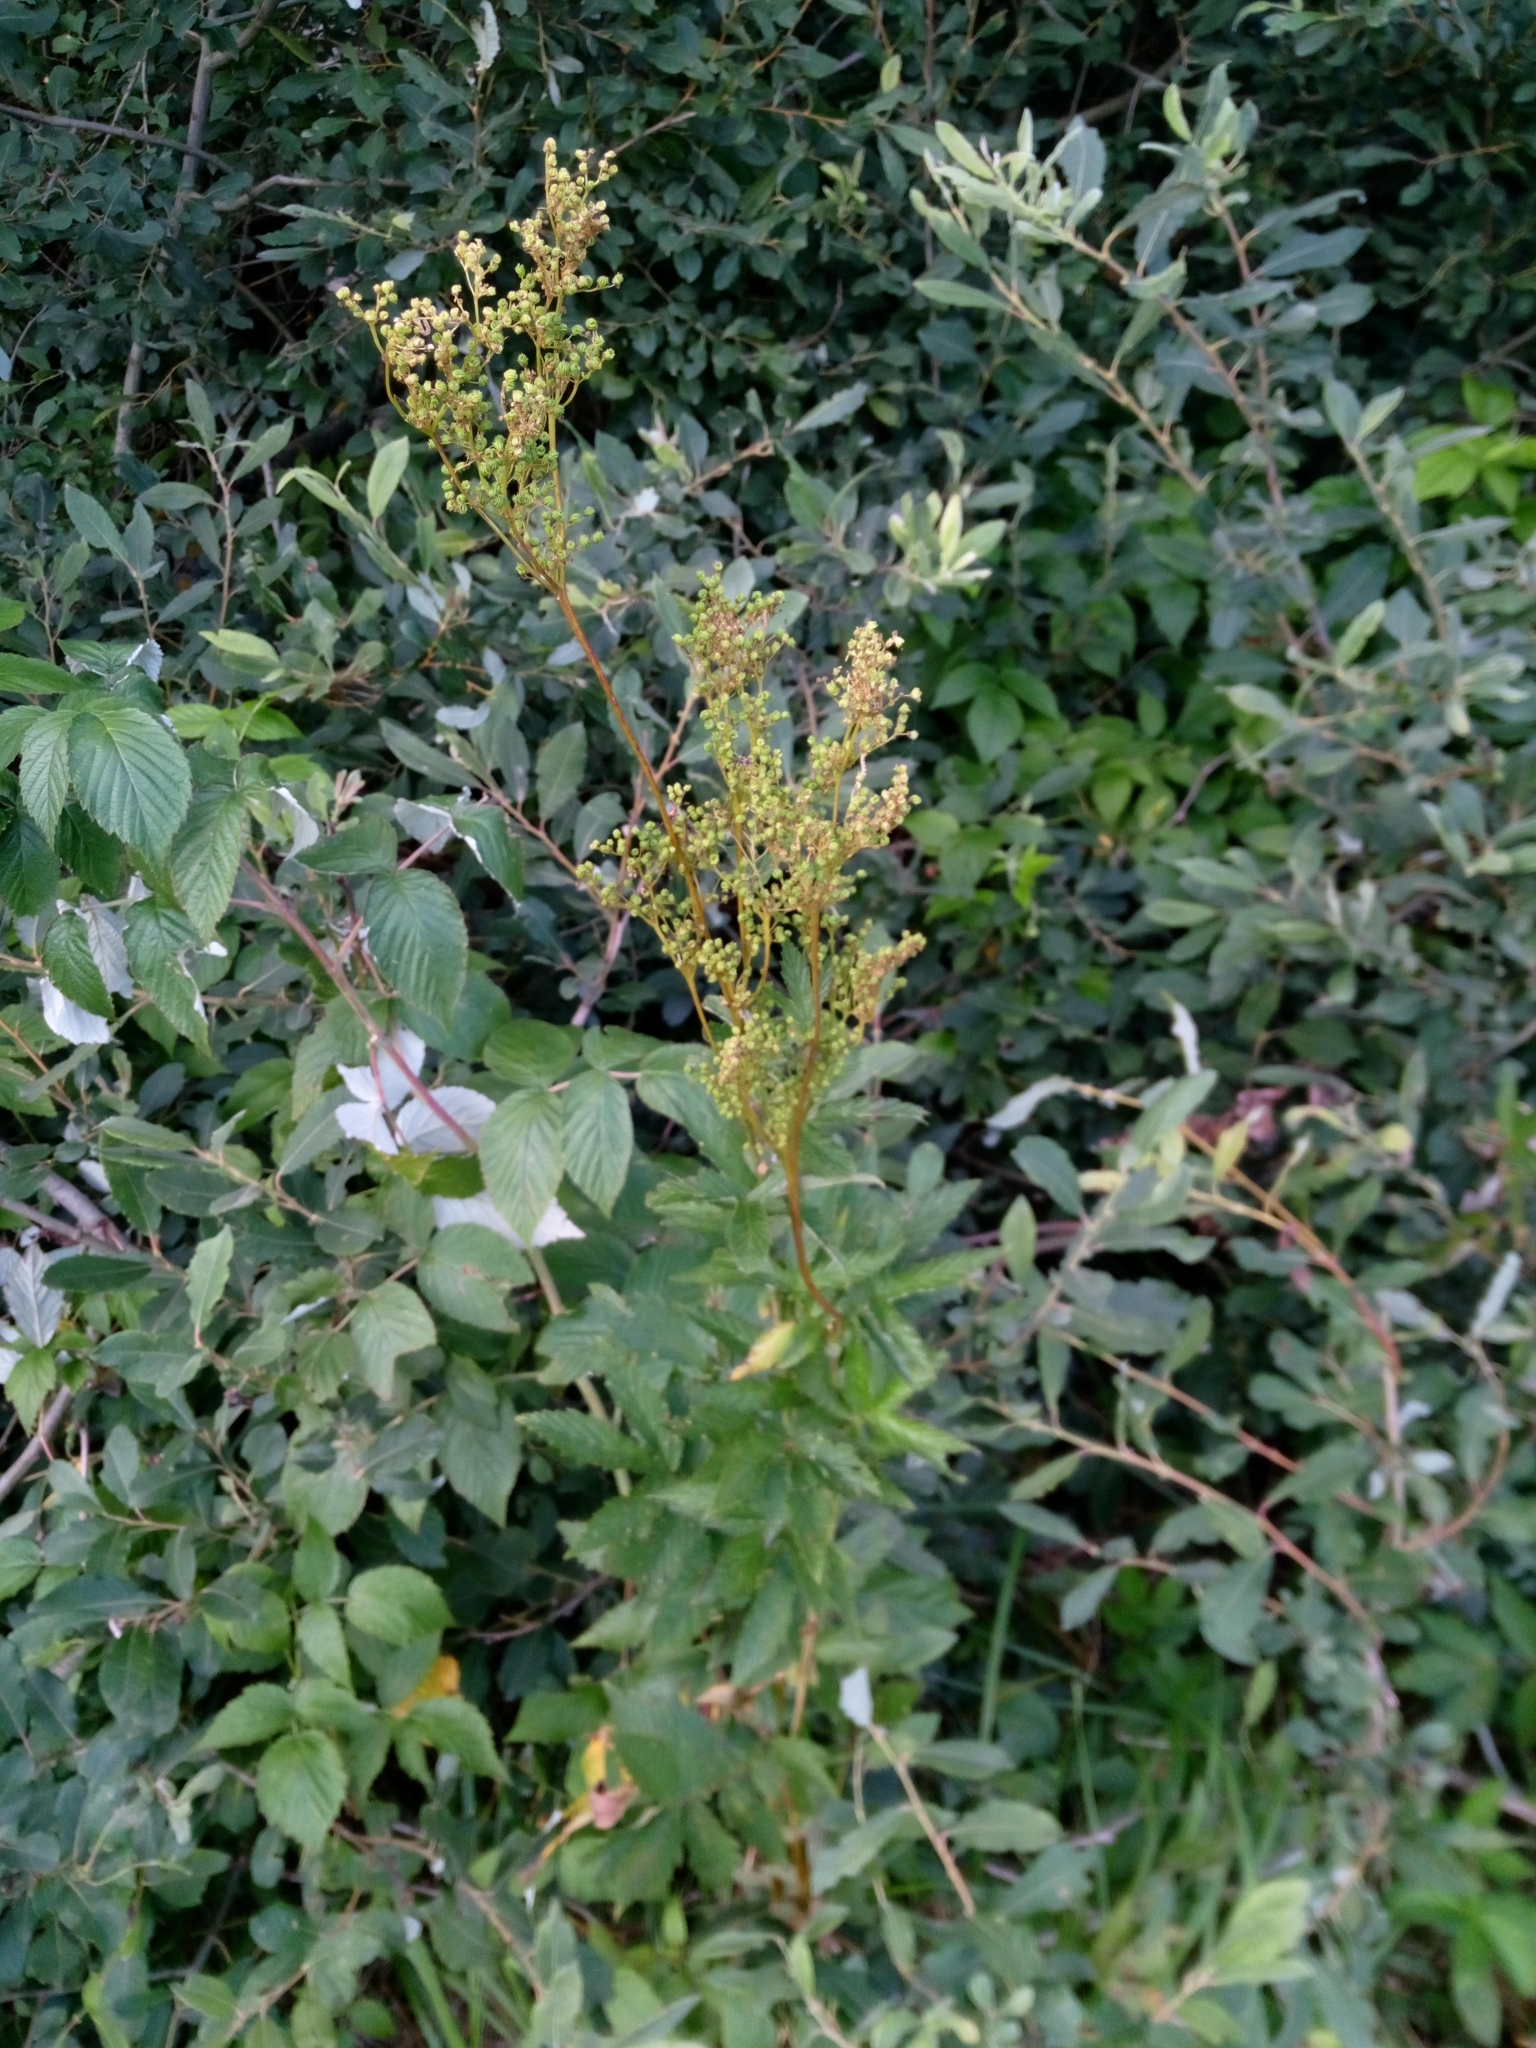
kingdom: Plantae
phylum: Tracheophyta
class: Magnoliopsida
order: Rosales
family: Rosaceae
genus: Filipendula
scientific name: Filipendula ulmaria
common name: Meadowsweet
